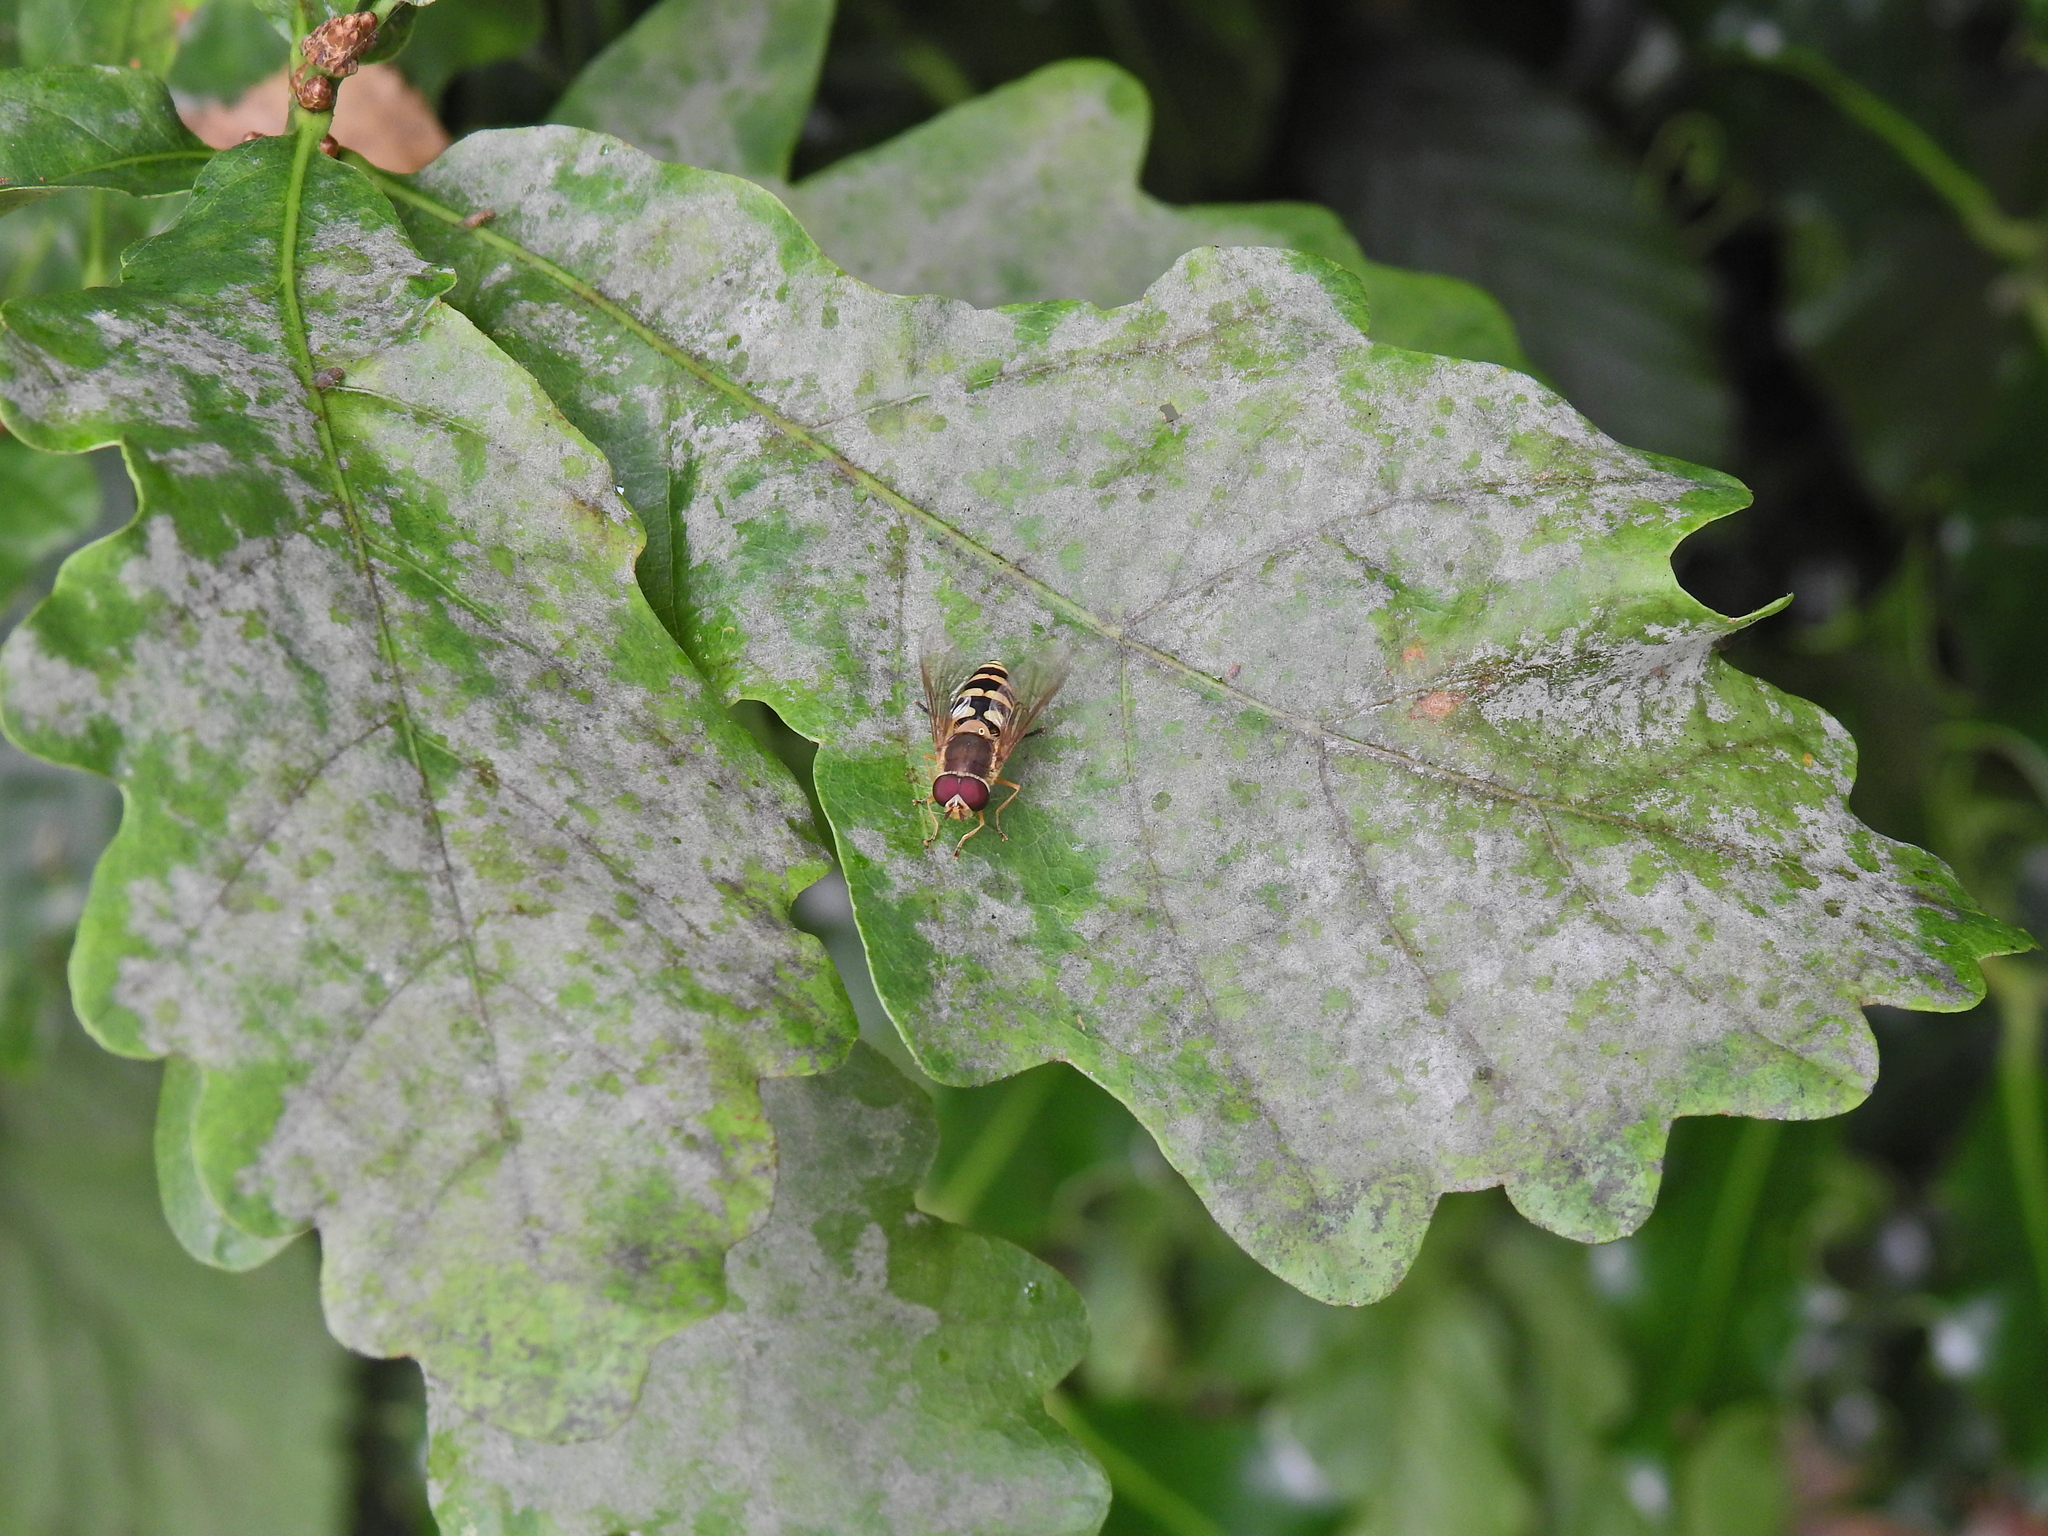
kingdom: Animalia
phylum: Arthropoda
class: Insecta
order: Diptera
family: Syrphidae
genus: Syrphus
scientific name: Syrphus
